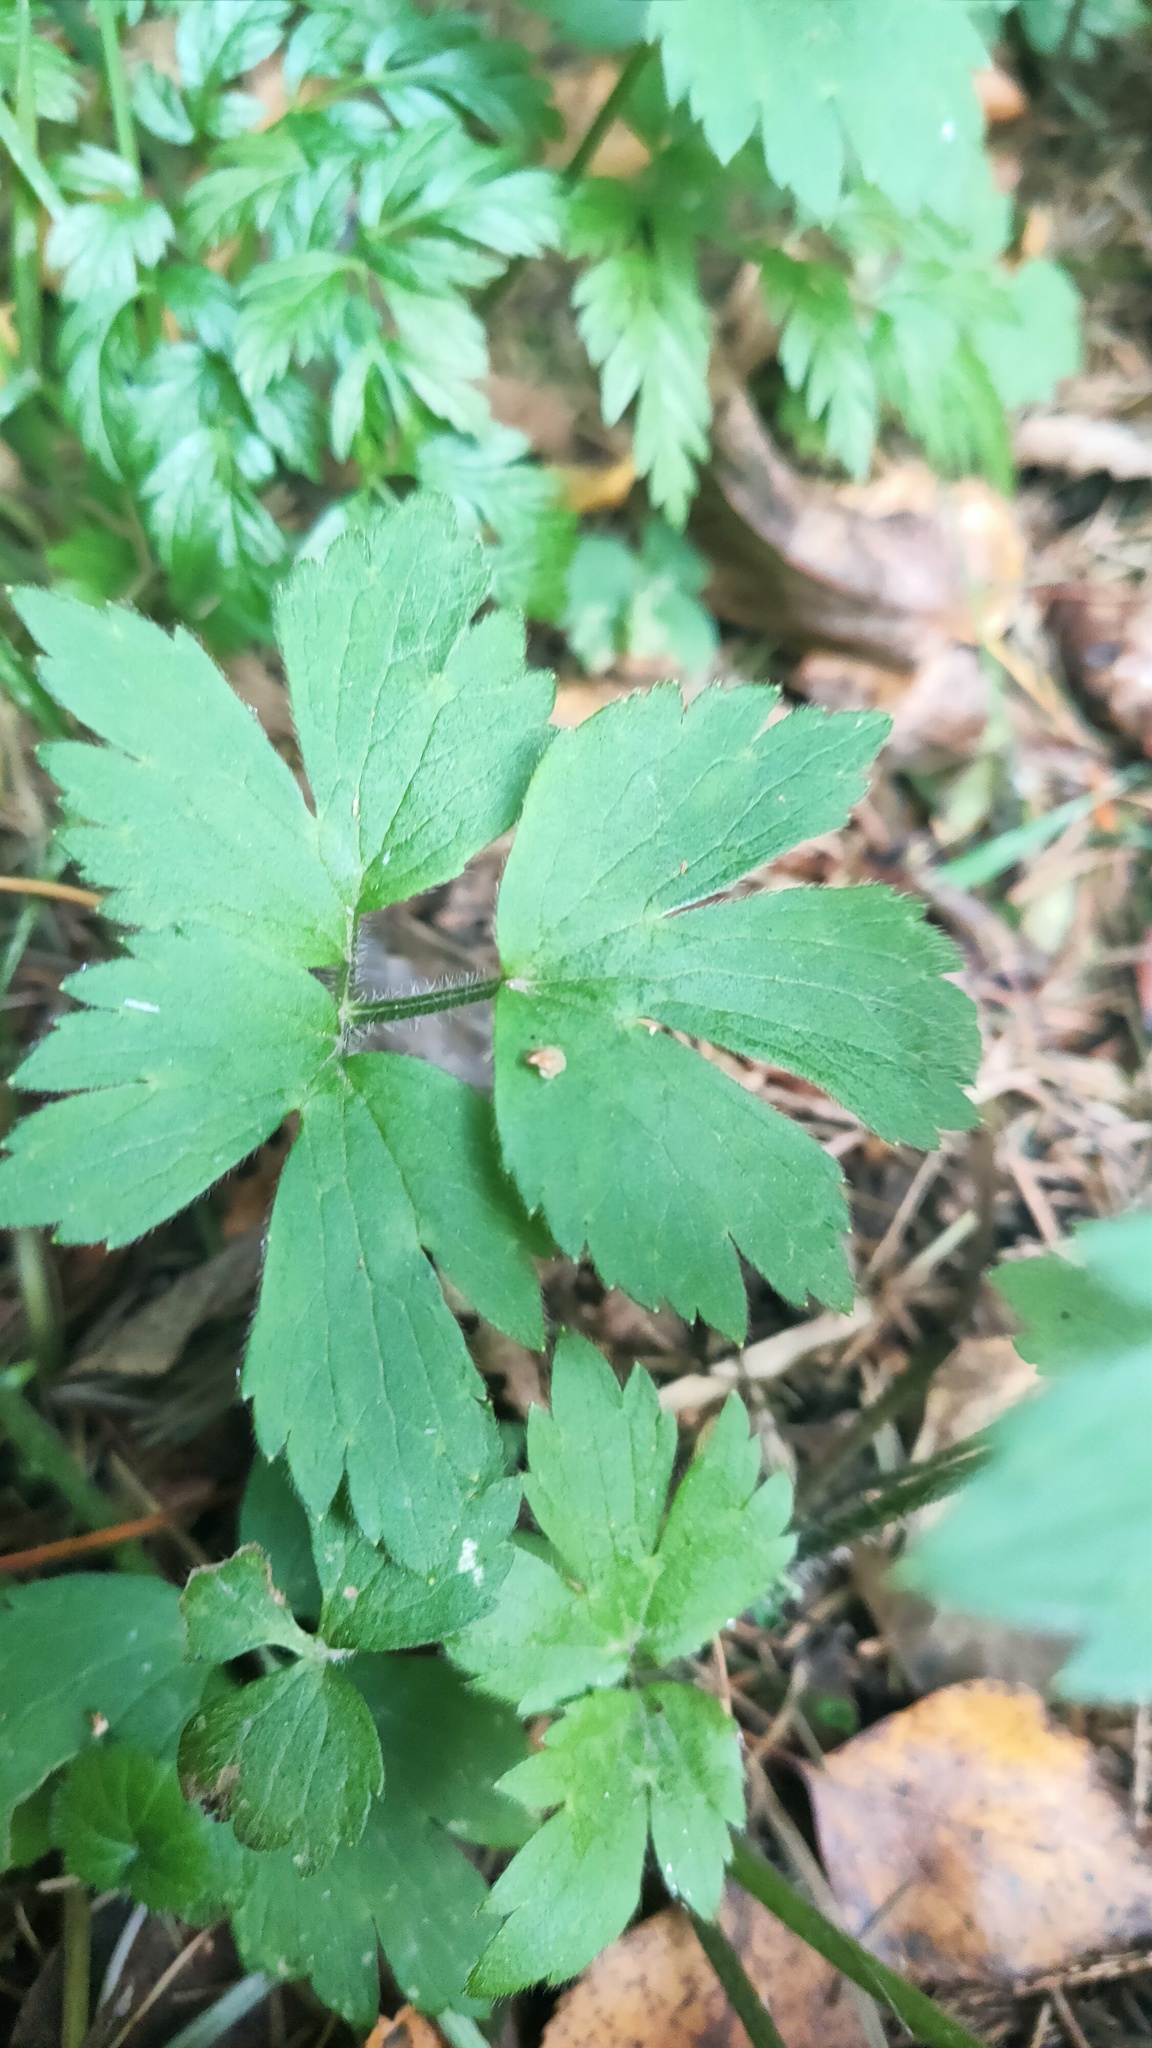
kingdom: Plantae
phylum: Tracheophyta
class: Magnoliopsida
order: Ranunculales
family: Ranunculaceae
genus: Ranunculus
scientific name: Ranunculus repens
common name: Creeping buttercup
